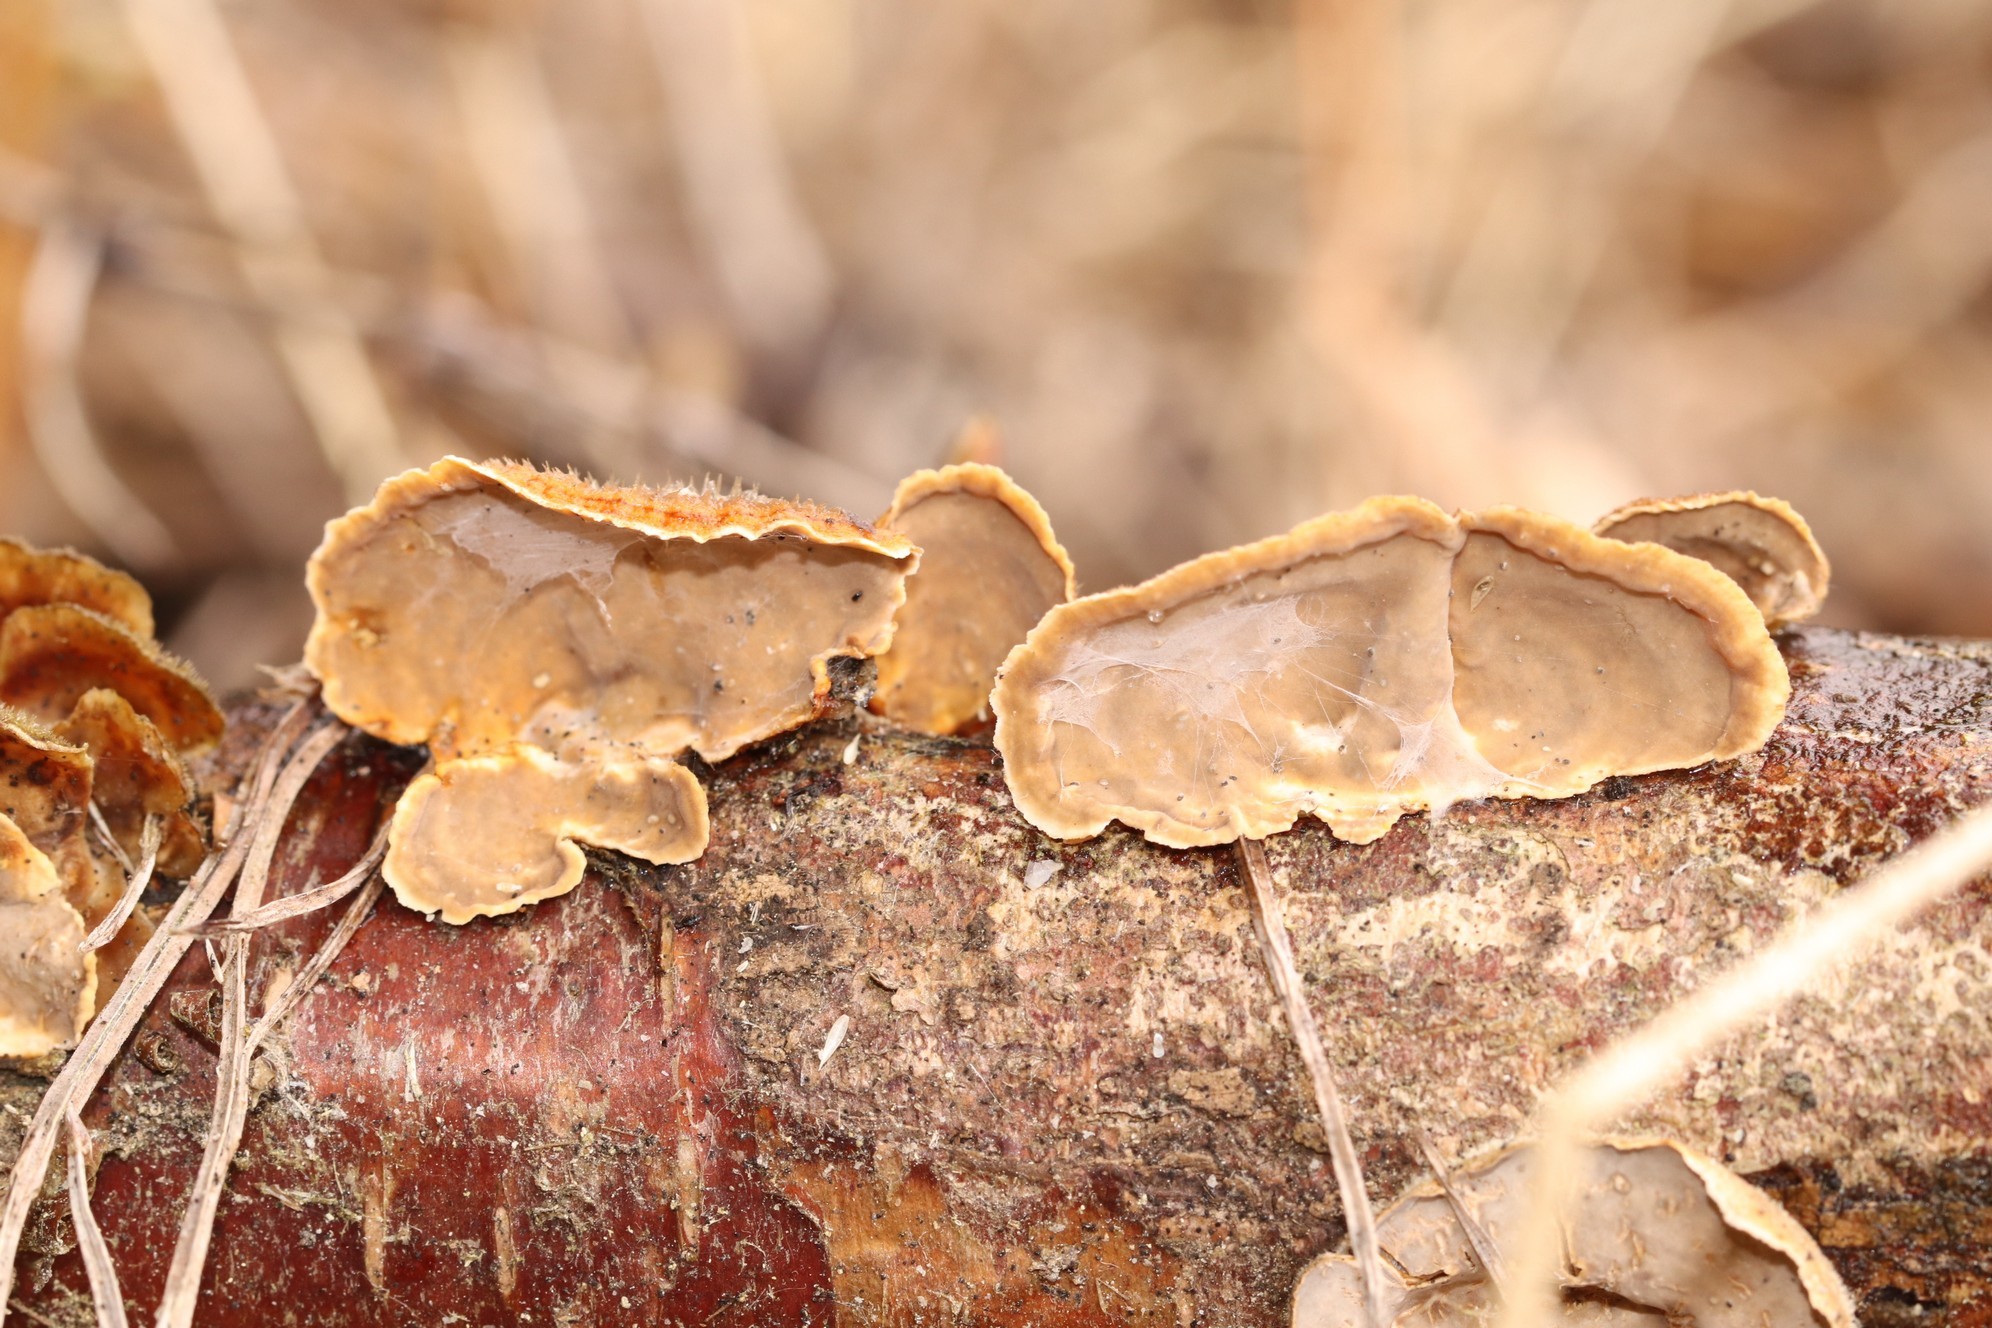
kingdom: Fungi
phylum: Basidiomycota
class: Agaricomycetes
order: Russulales
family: Stereaceae
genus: Stereum
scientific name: Stereum hirsutum
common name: Hairy curtain crust
